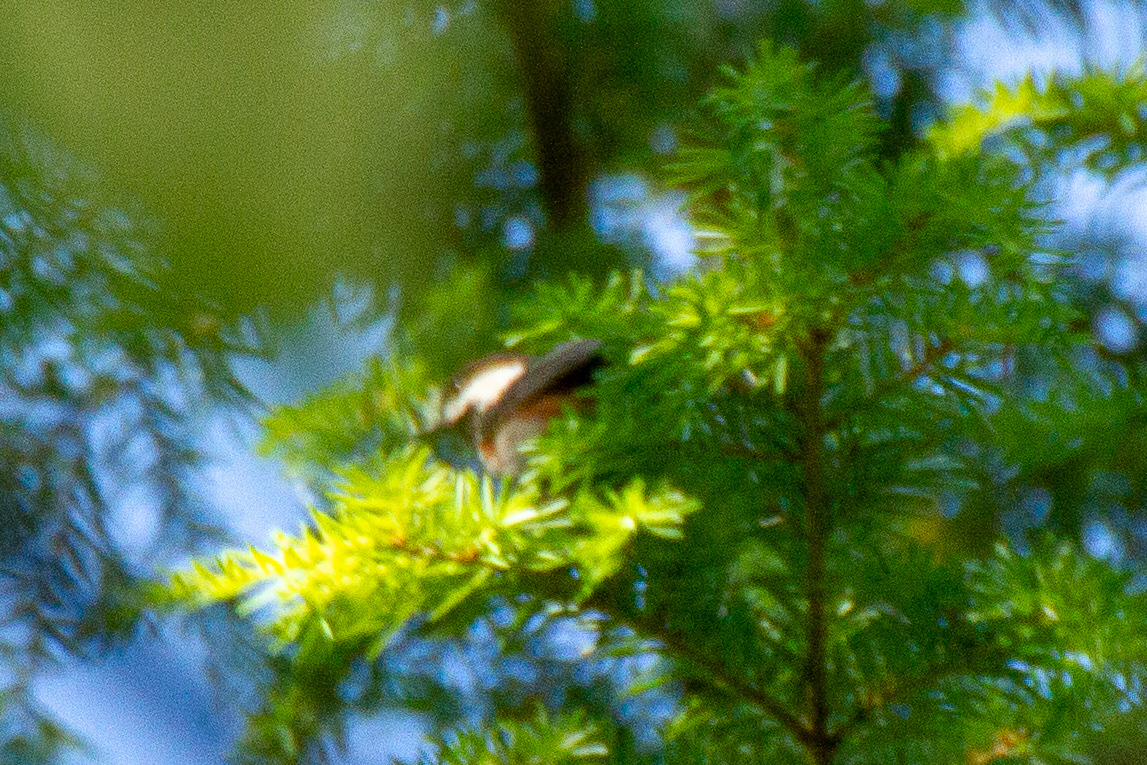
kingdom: Animalia
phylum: Chordata
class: Aves
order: Passeriformes
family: Paridae
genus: Poecile
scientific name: Poecile rufescens
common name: Chestnut-backed chickadee
